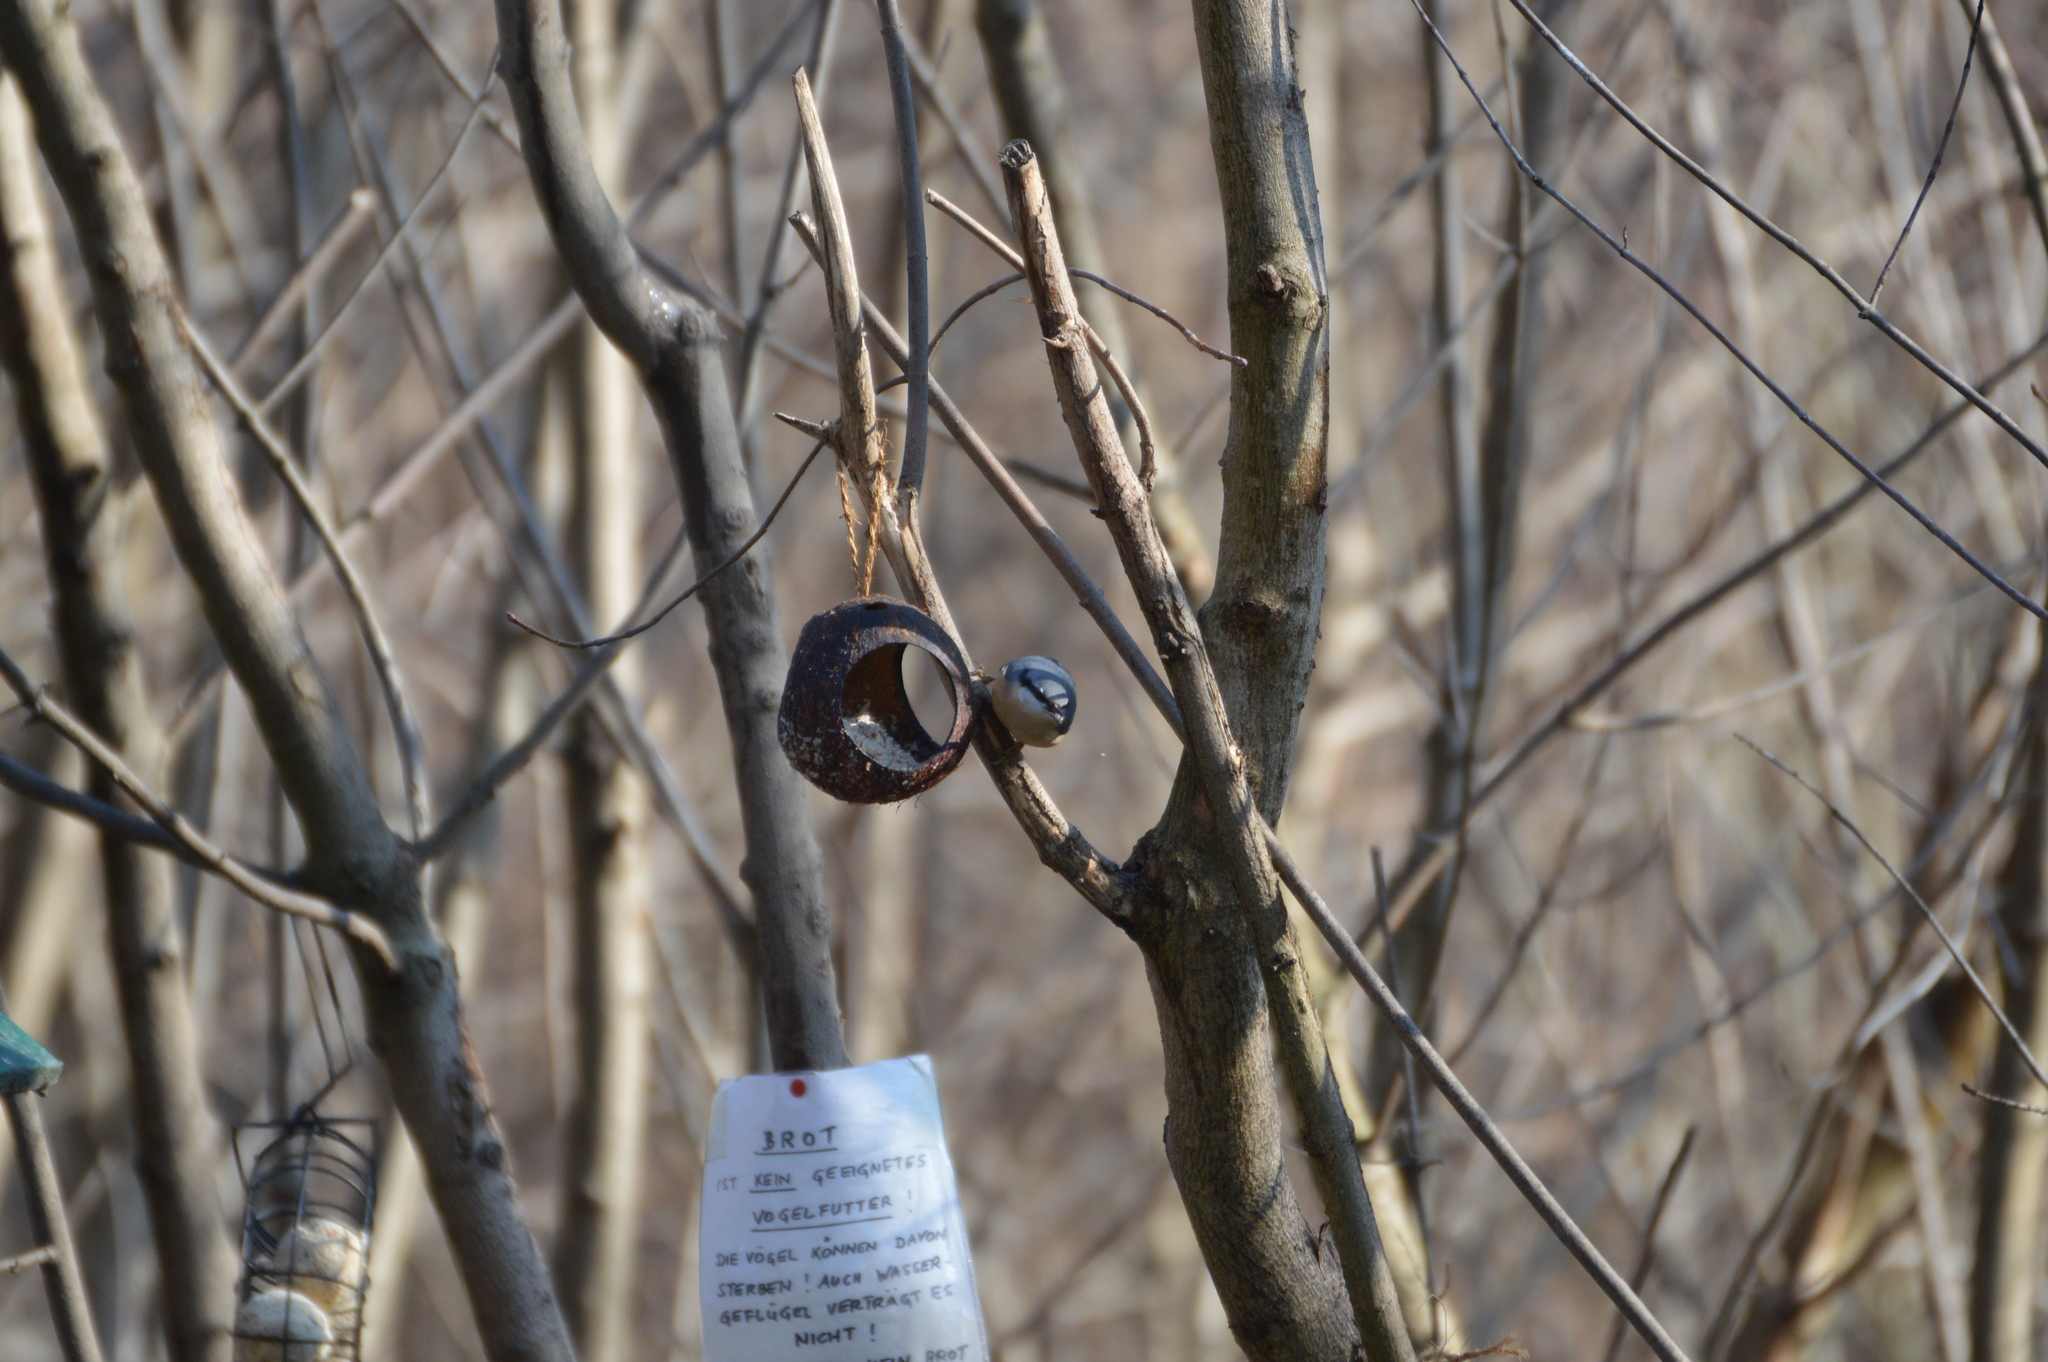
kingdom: Animalia
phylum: Chordata
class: Aves
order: Passeriformes
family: Sittidae
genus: Sitta
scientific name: Sitta europaea
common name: Eurasian nuthatch
